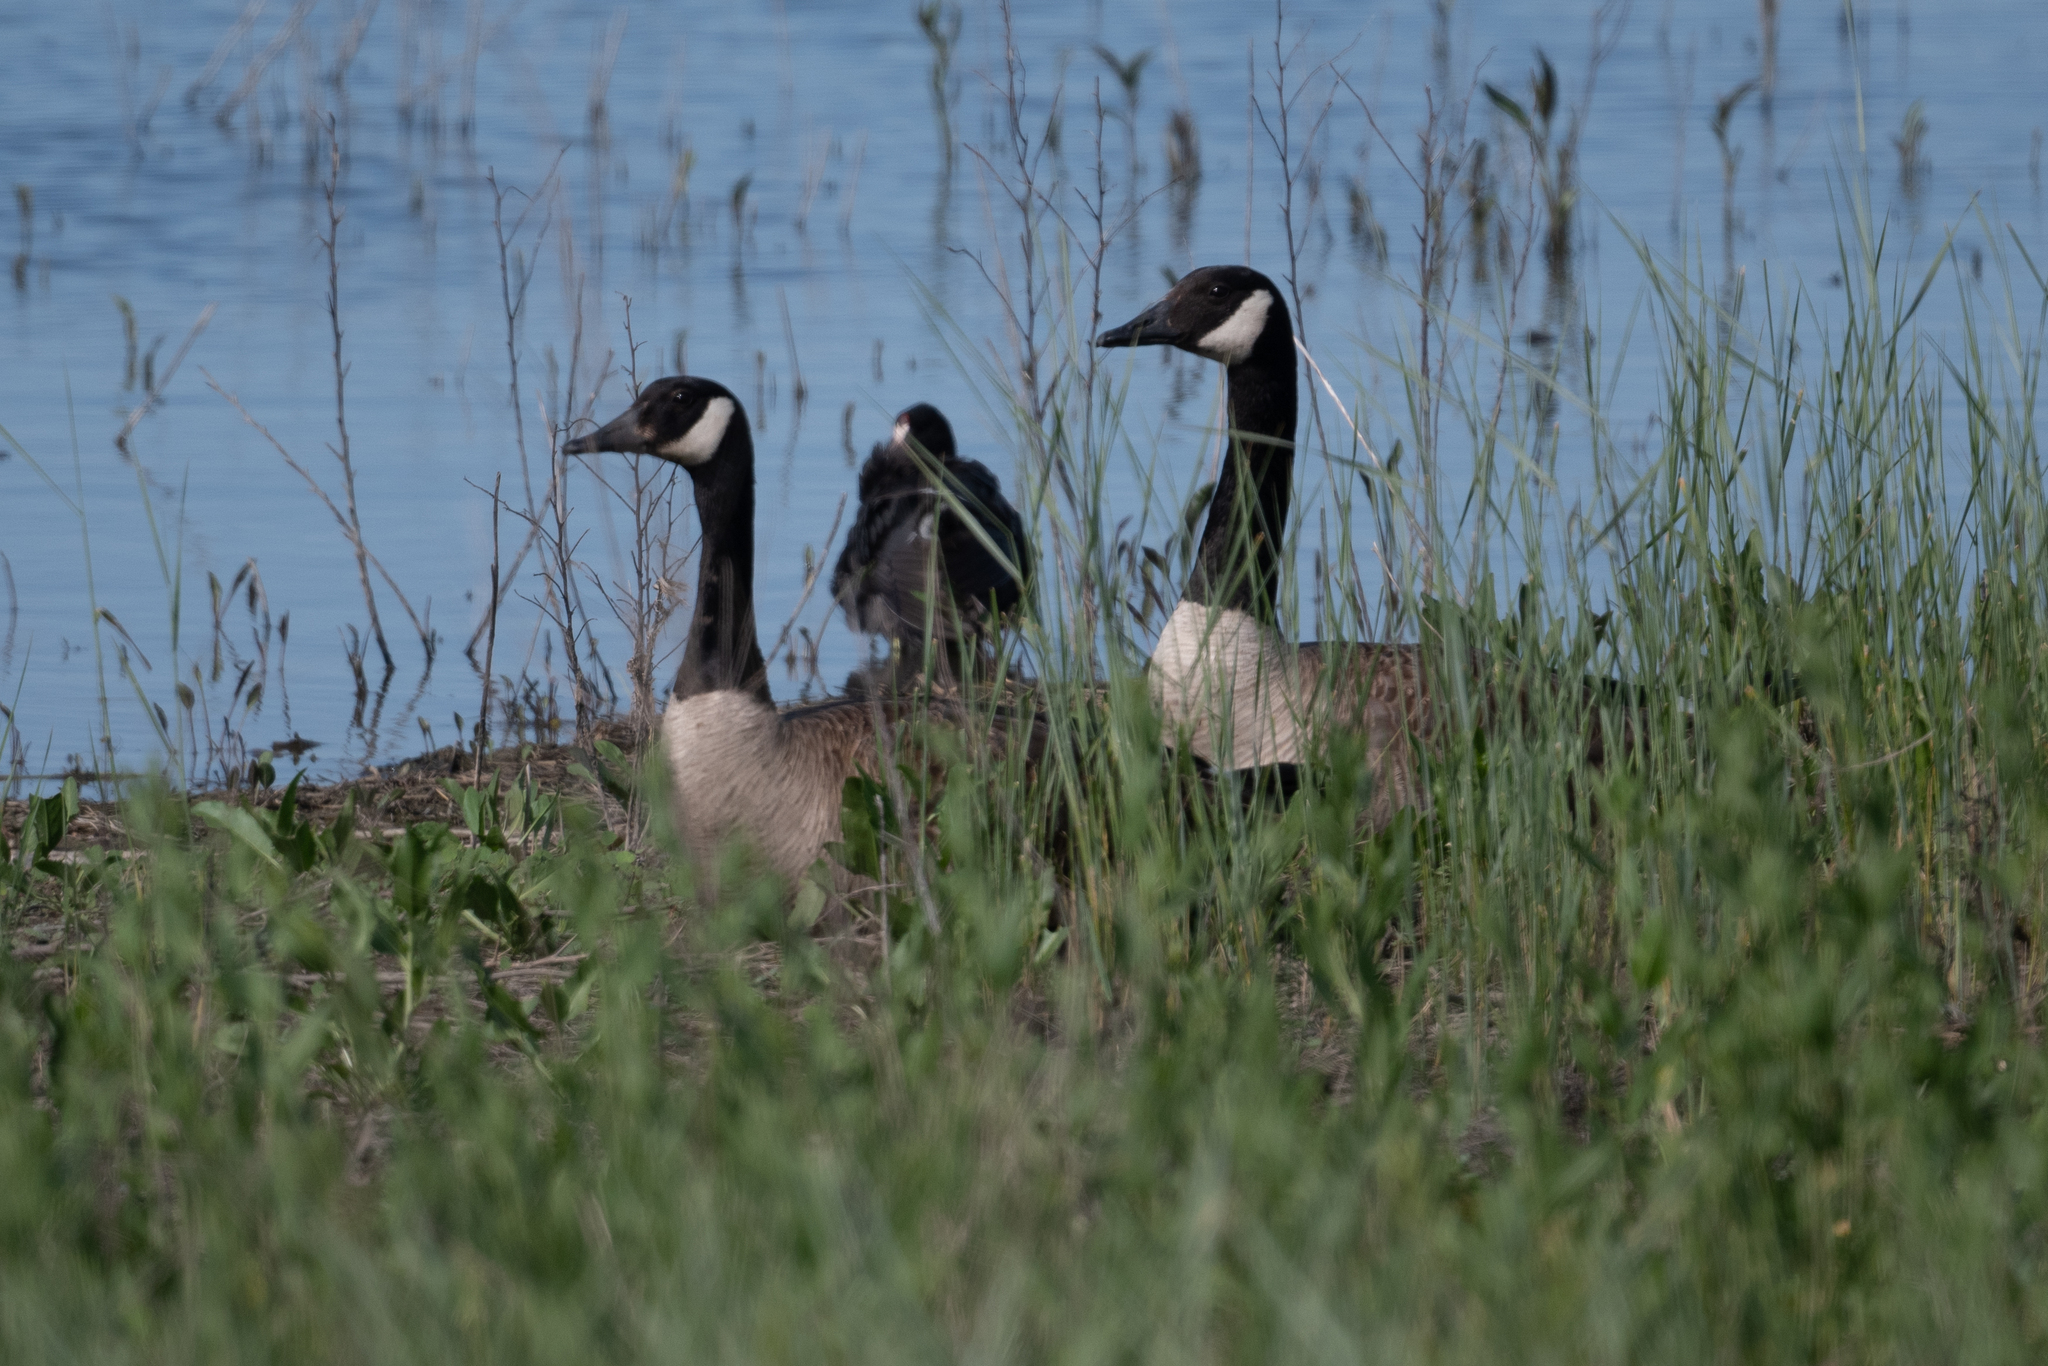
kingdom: Animalia
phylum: Chordata
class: Aves
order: Anseriformes
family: Anatidae
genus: Branta
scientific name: Branta canadensis
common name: Canada goose
